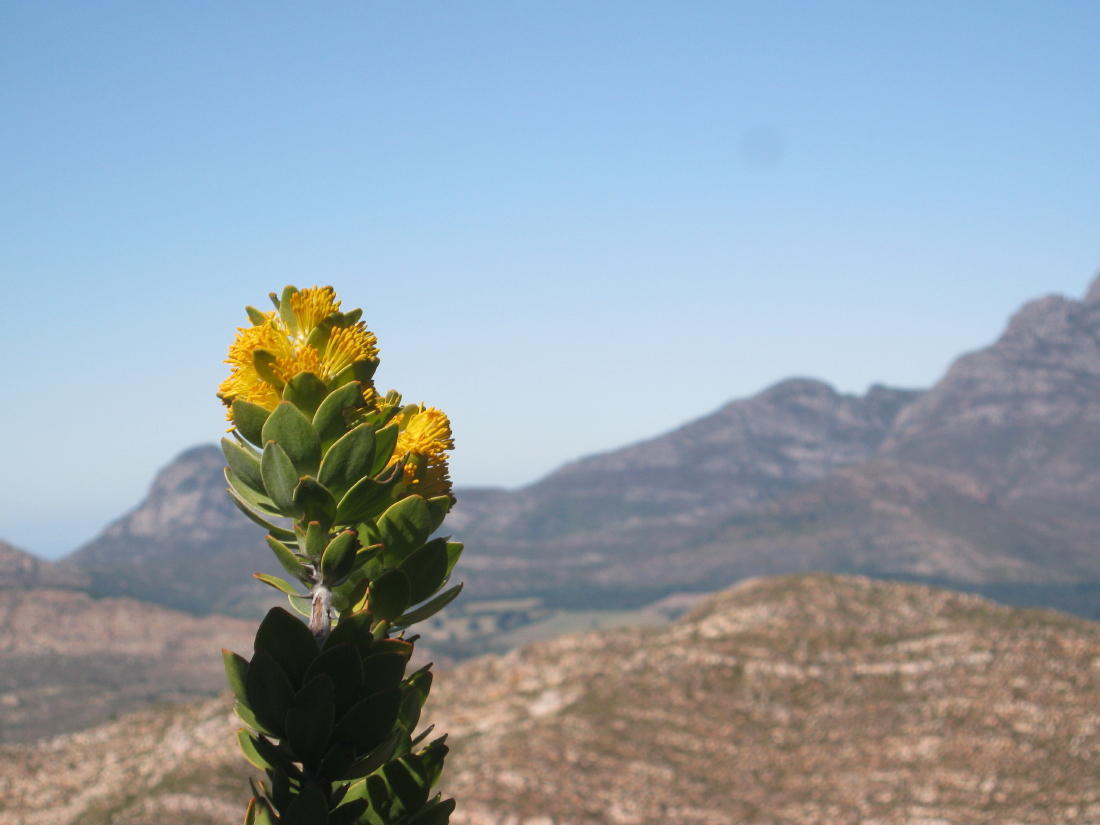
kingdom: Plantae
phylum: Tracheophyta
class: Magnoliopsida
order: Proteales
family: Proteaceae
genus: Mimetes
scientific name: Mimetes chrysanthus
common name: Golden pagoda
